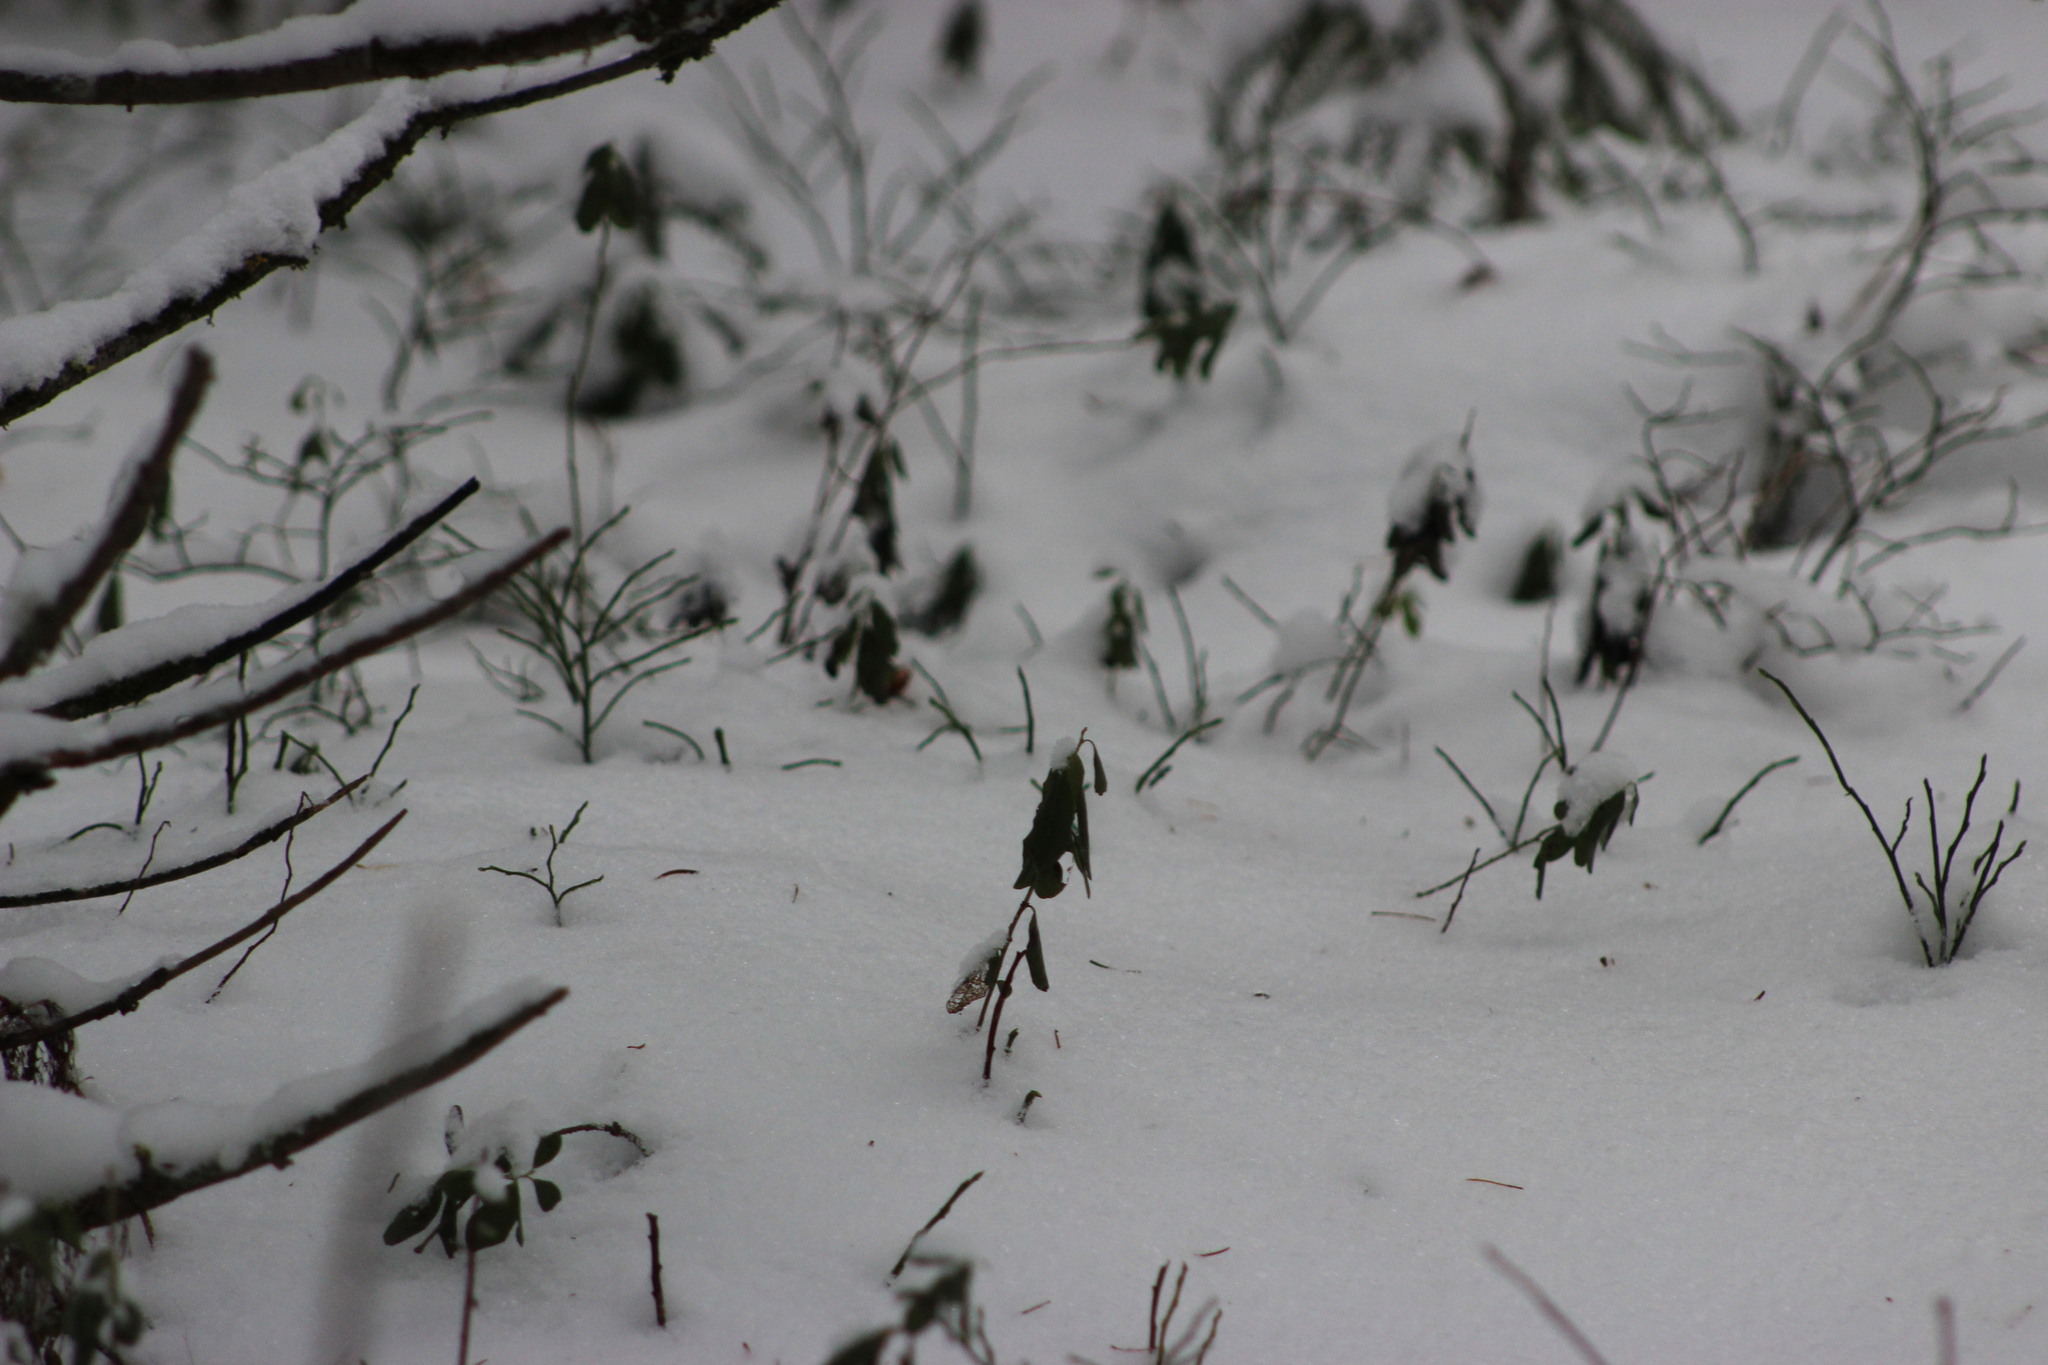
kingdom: Plantae
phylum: Tracheophyta
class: Magnoliopsida
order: Ericales
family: Ericaceae
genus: Vaccinium
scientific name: Vaccinium vitis-idaea
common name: Cowberry
